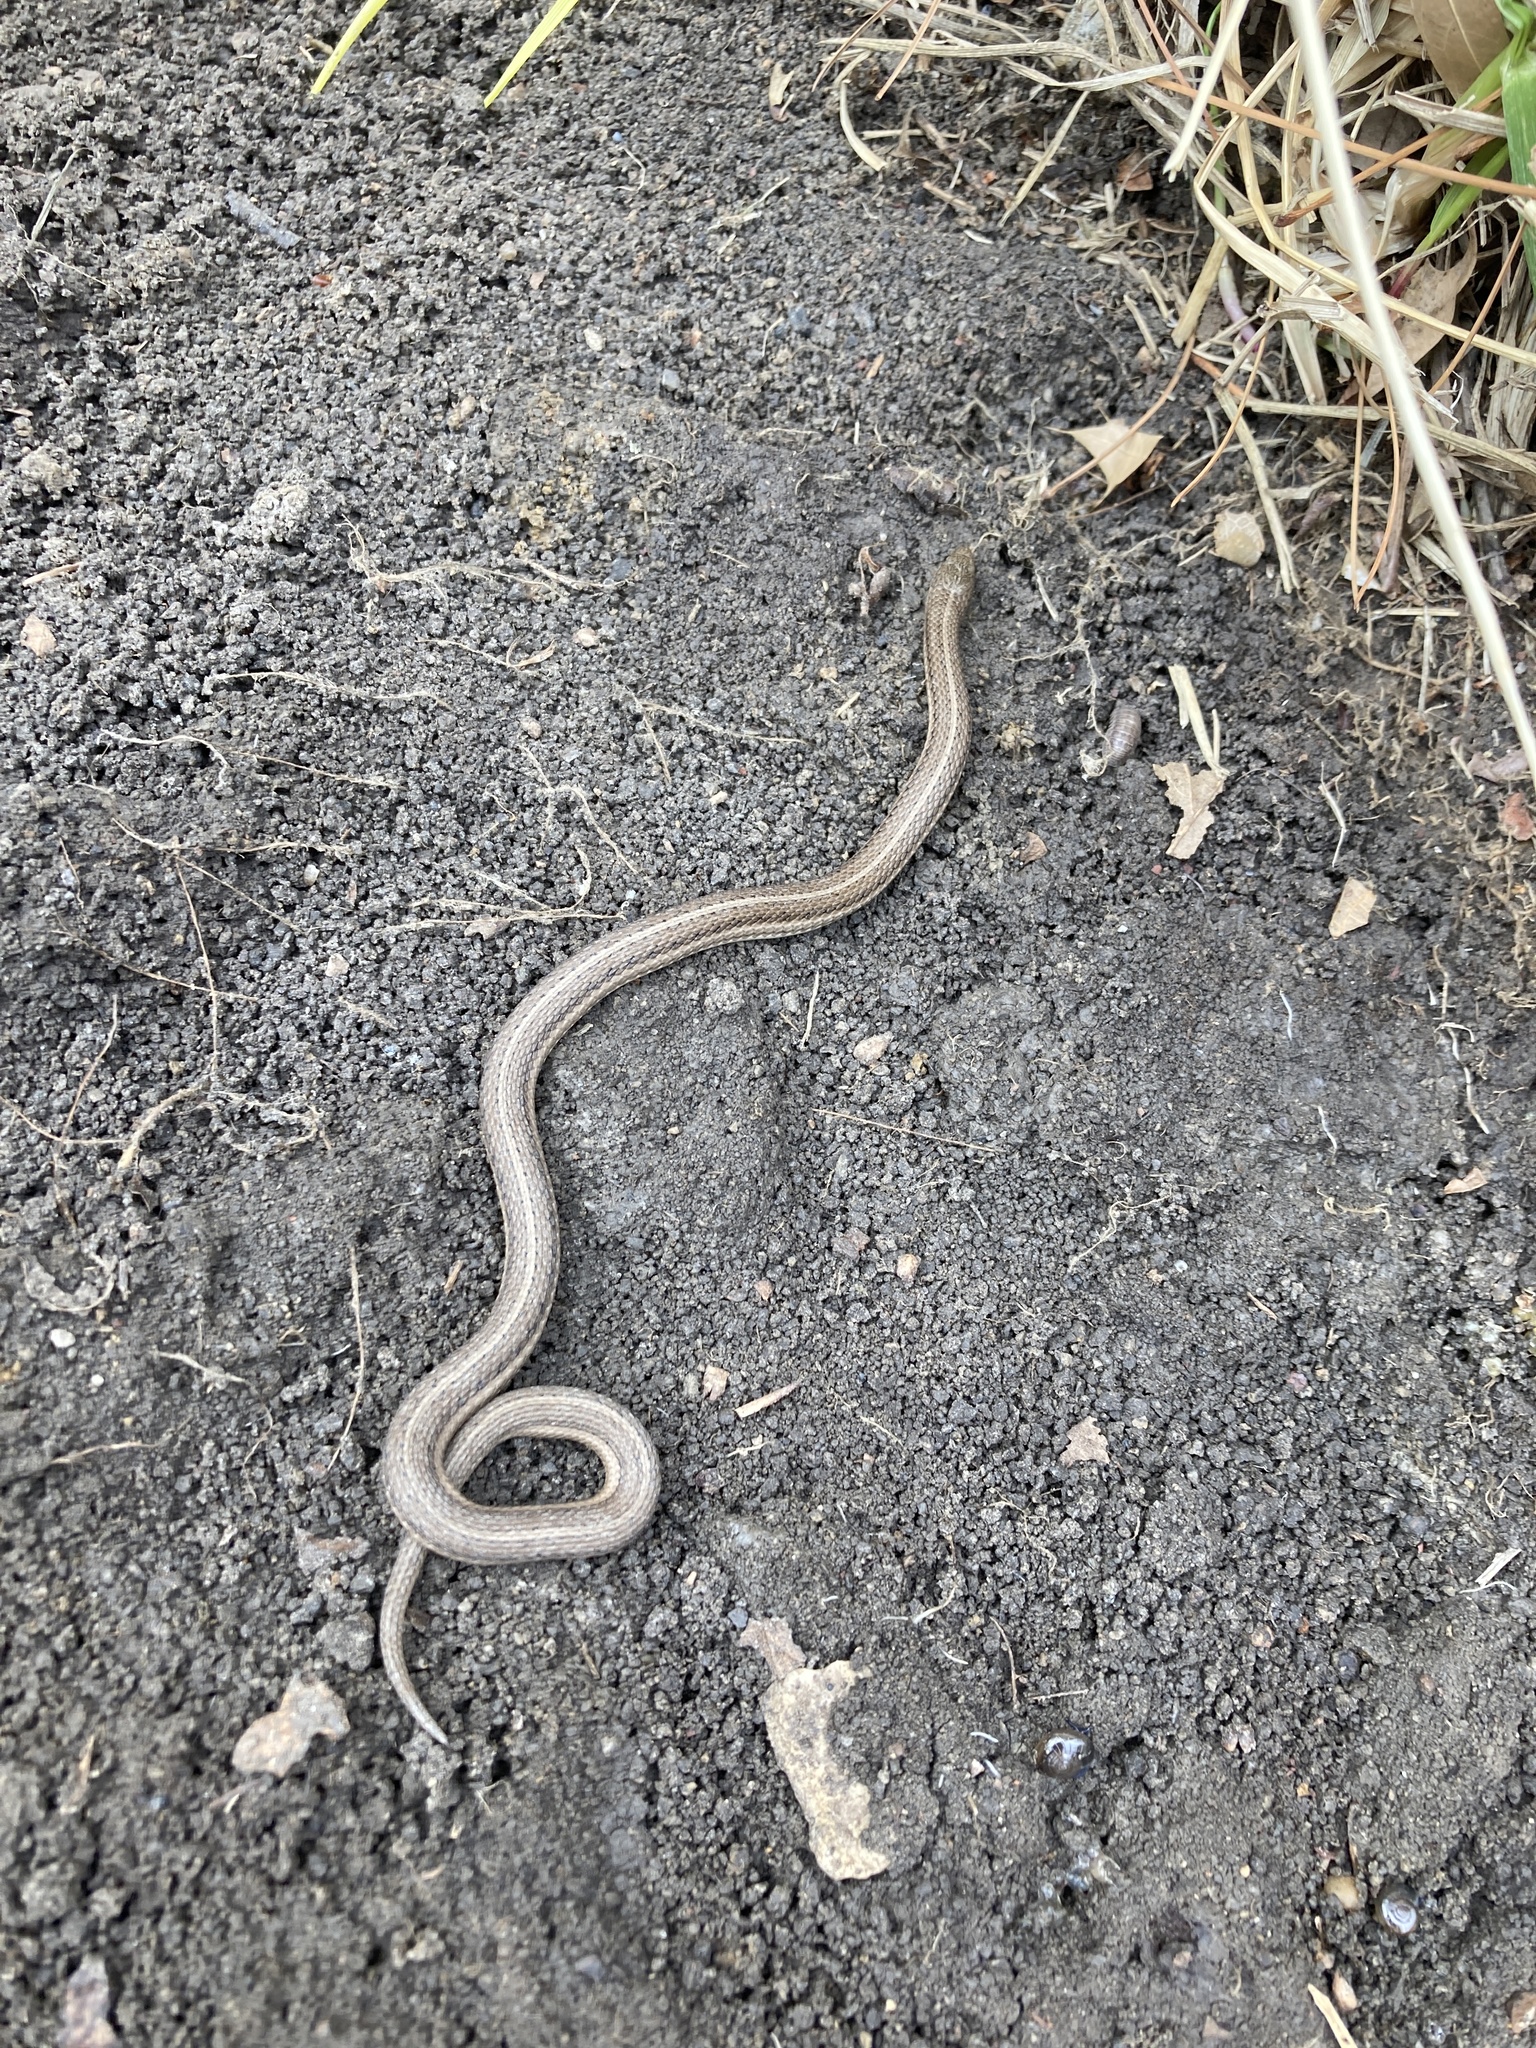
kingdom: Animalia
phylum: Chordata
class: Squamata
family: Colubridae
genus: Tropidoclonion
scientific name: Tropidoclonion lineatum
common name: Lined snake
